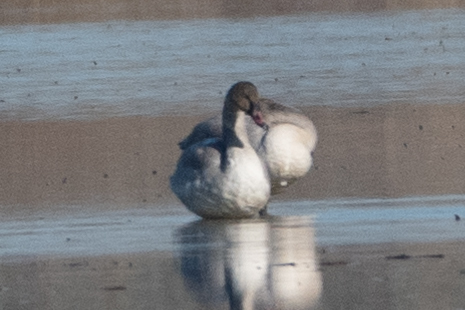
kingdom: Animalia
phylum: Chordata
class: Aves
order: Anseriformes
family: Anatidae
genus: Cygnus
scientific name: Cygnus columbianus
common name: Tundra swan
